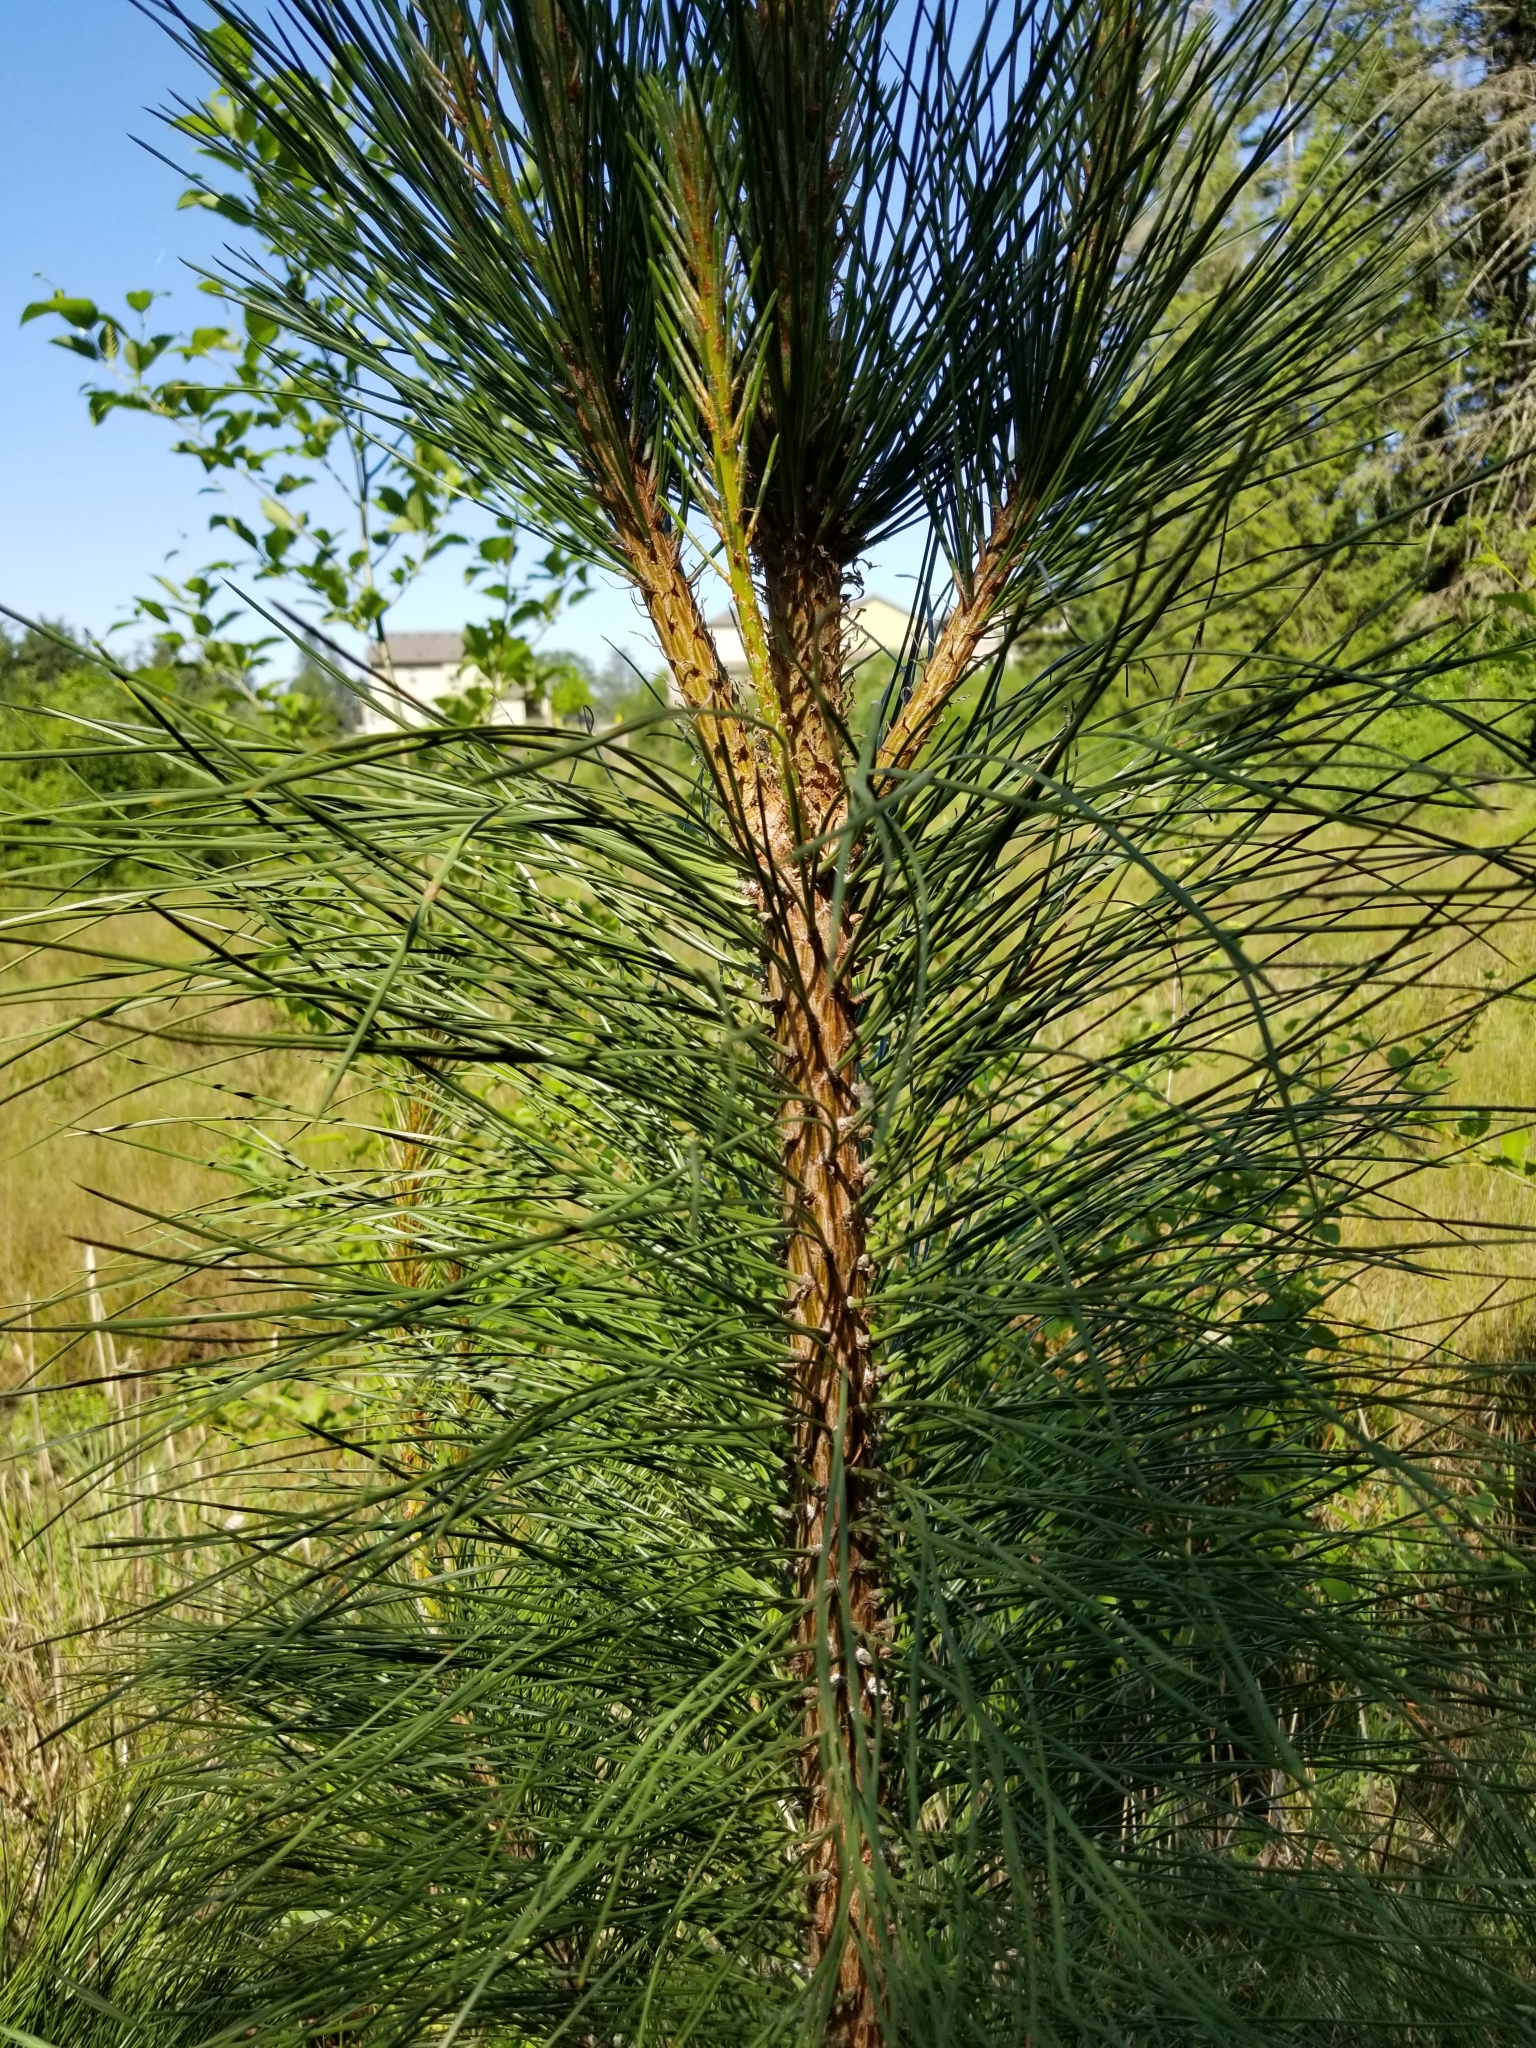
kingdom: Plantae
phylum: Tracheophyta
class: Pinopsida
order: Pinales
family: Pinaceae
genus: Pinus
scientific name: Pinus ponderosa
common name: Western yellow-pine
